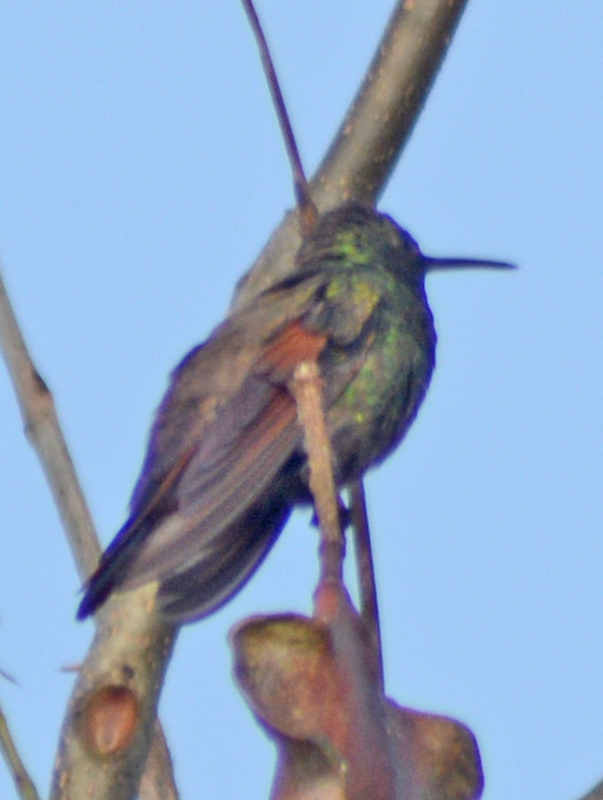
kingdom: Animalia
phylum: Chordata
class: Aves
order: Apodiformes
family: Trochilidae
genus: Saucerottia
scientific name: Saucerottia beryllina
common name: Berylline hummingbird
